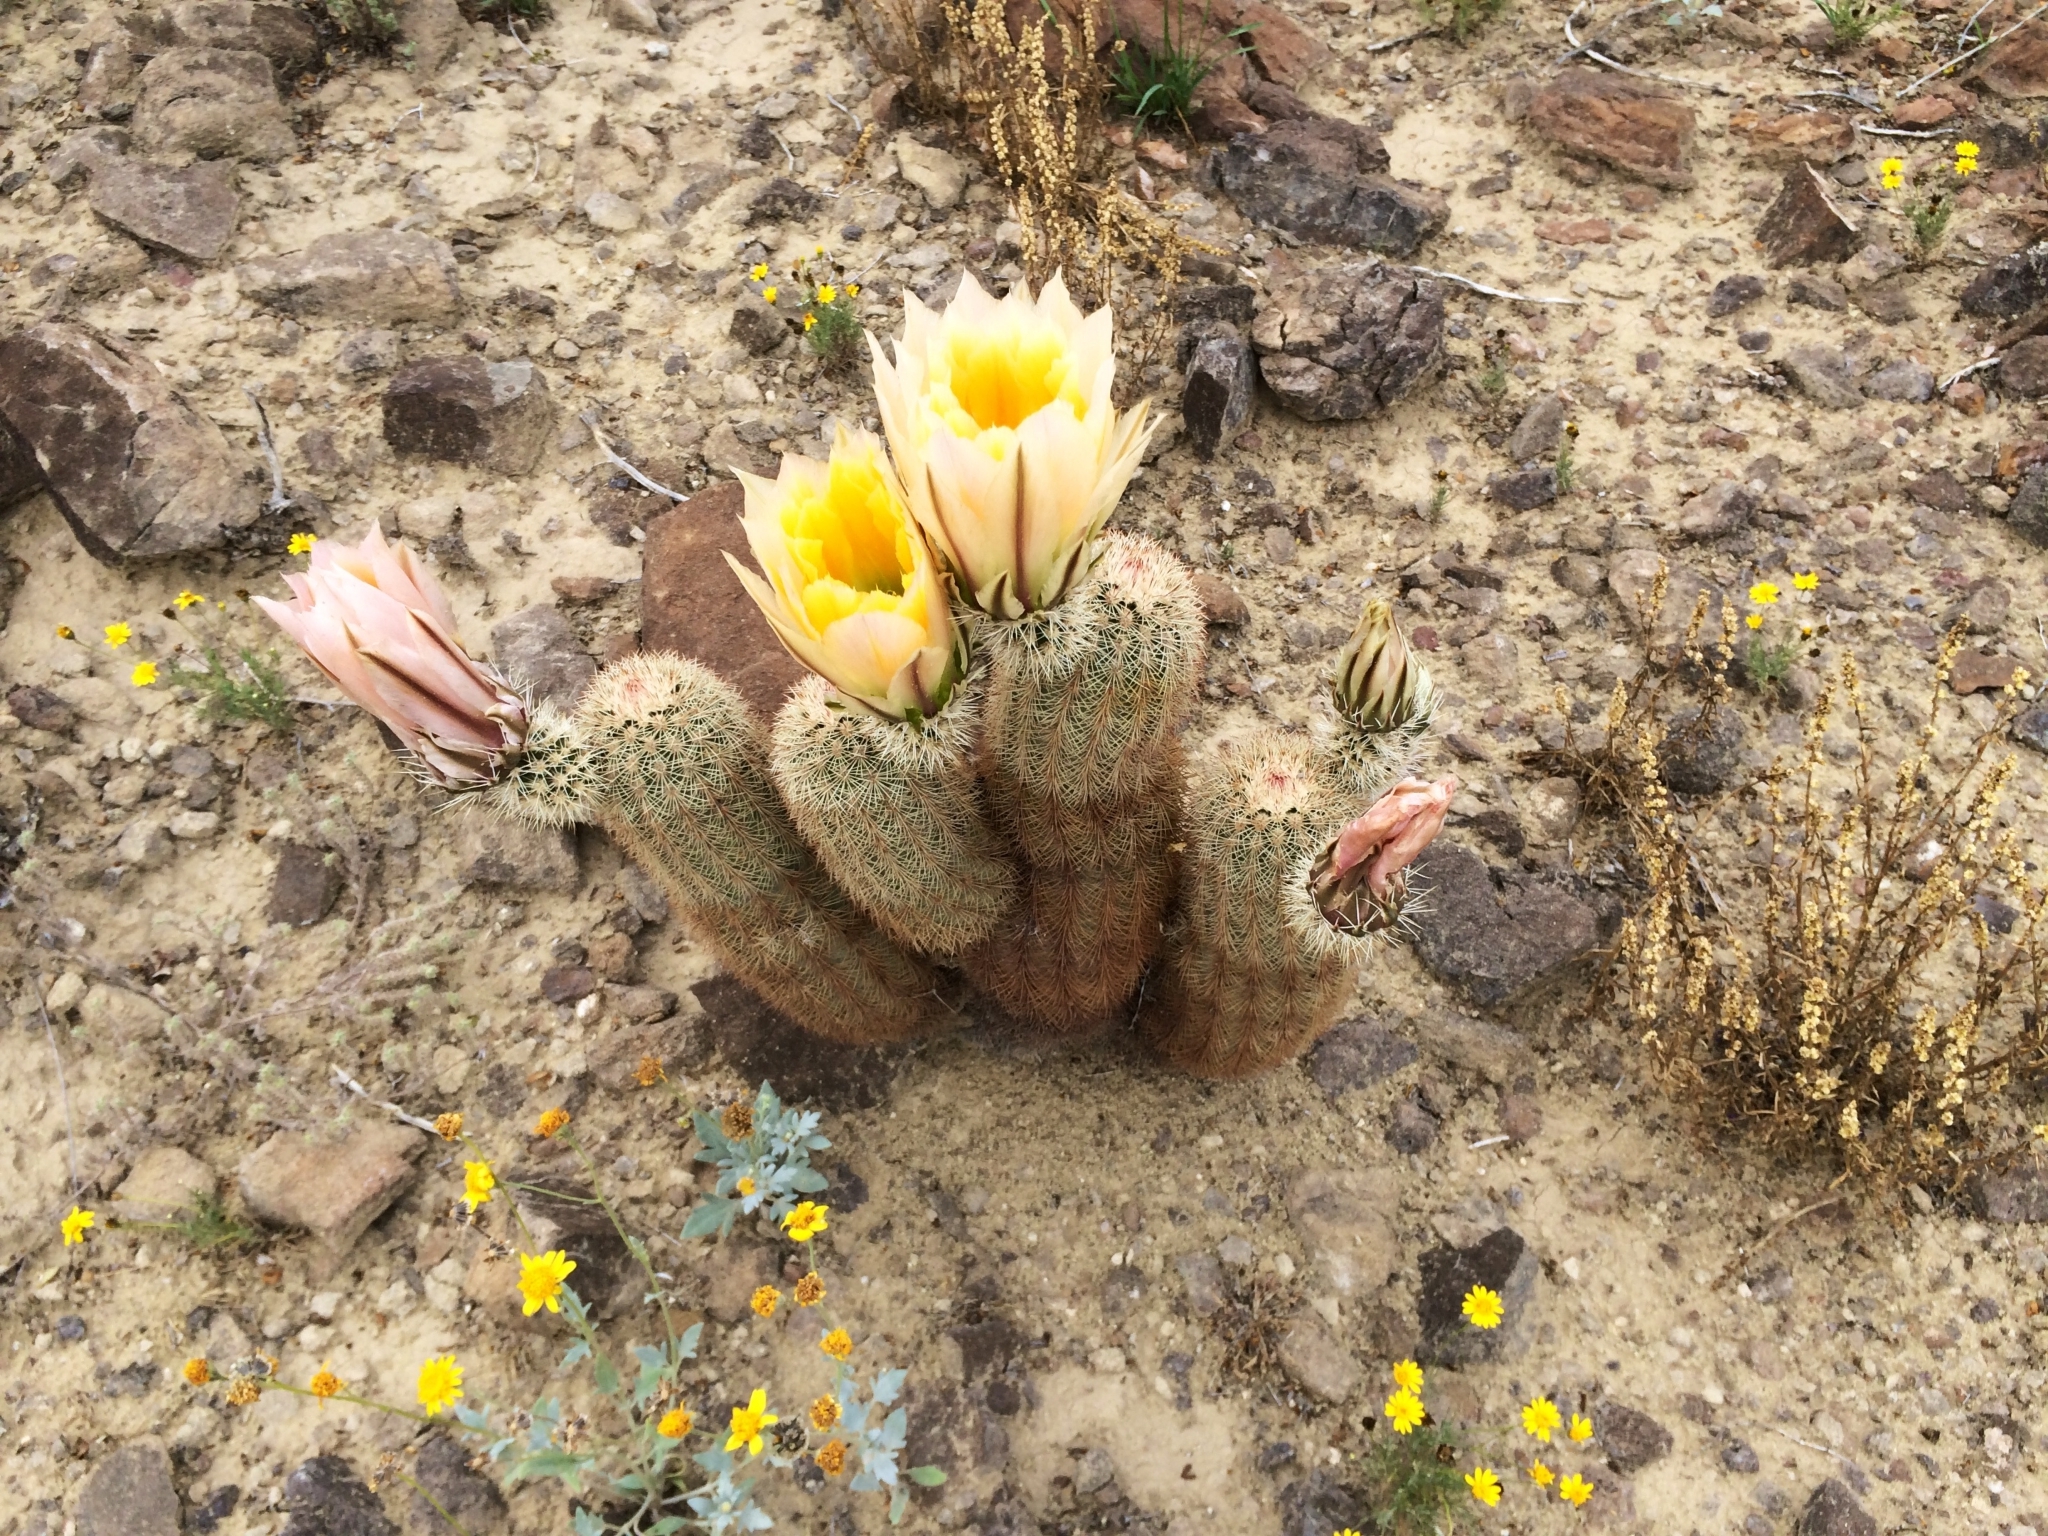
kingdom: Plantae
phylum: Tracheophyta
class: Magnoliopsida
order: Caryophyllales
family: Cactaceae
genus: Echinocereus
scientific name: Echinocereus dasyacanthus
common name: Spiny hedgehog cactus
